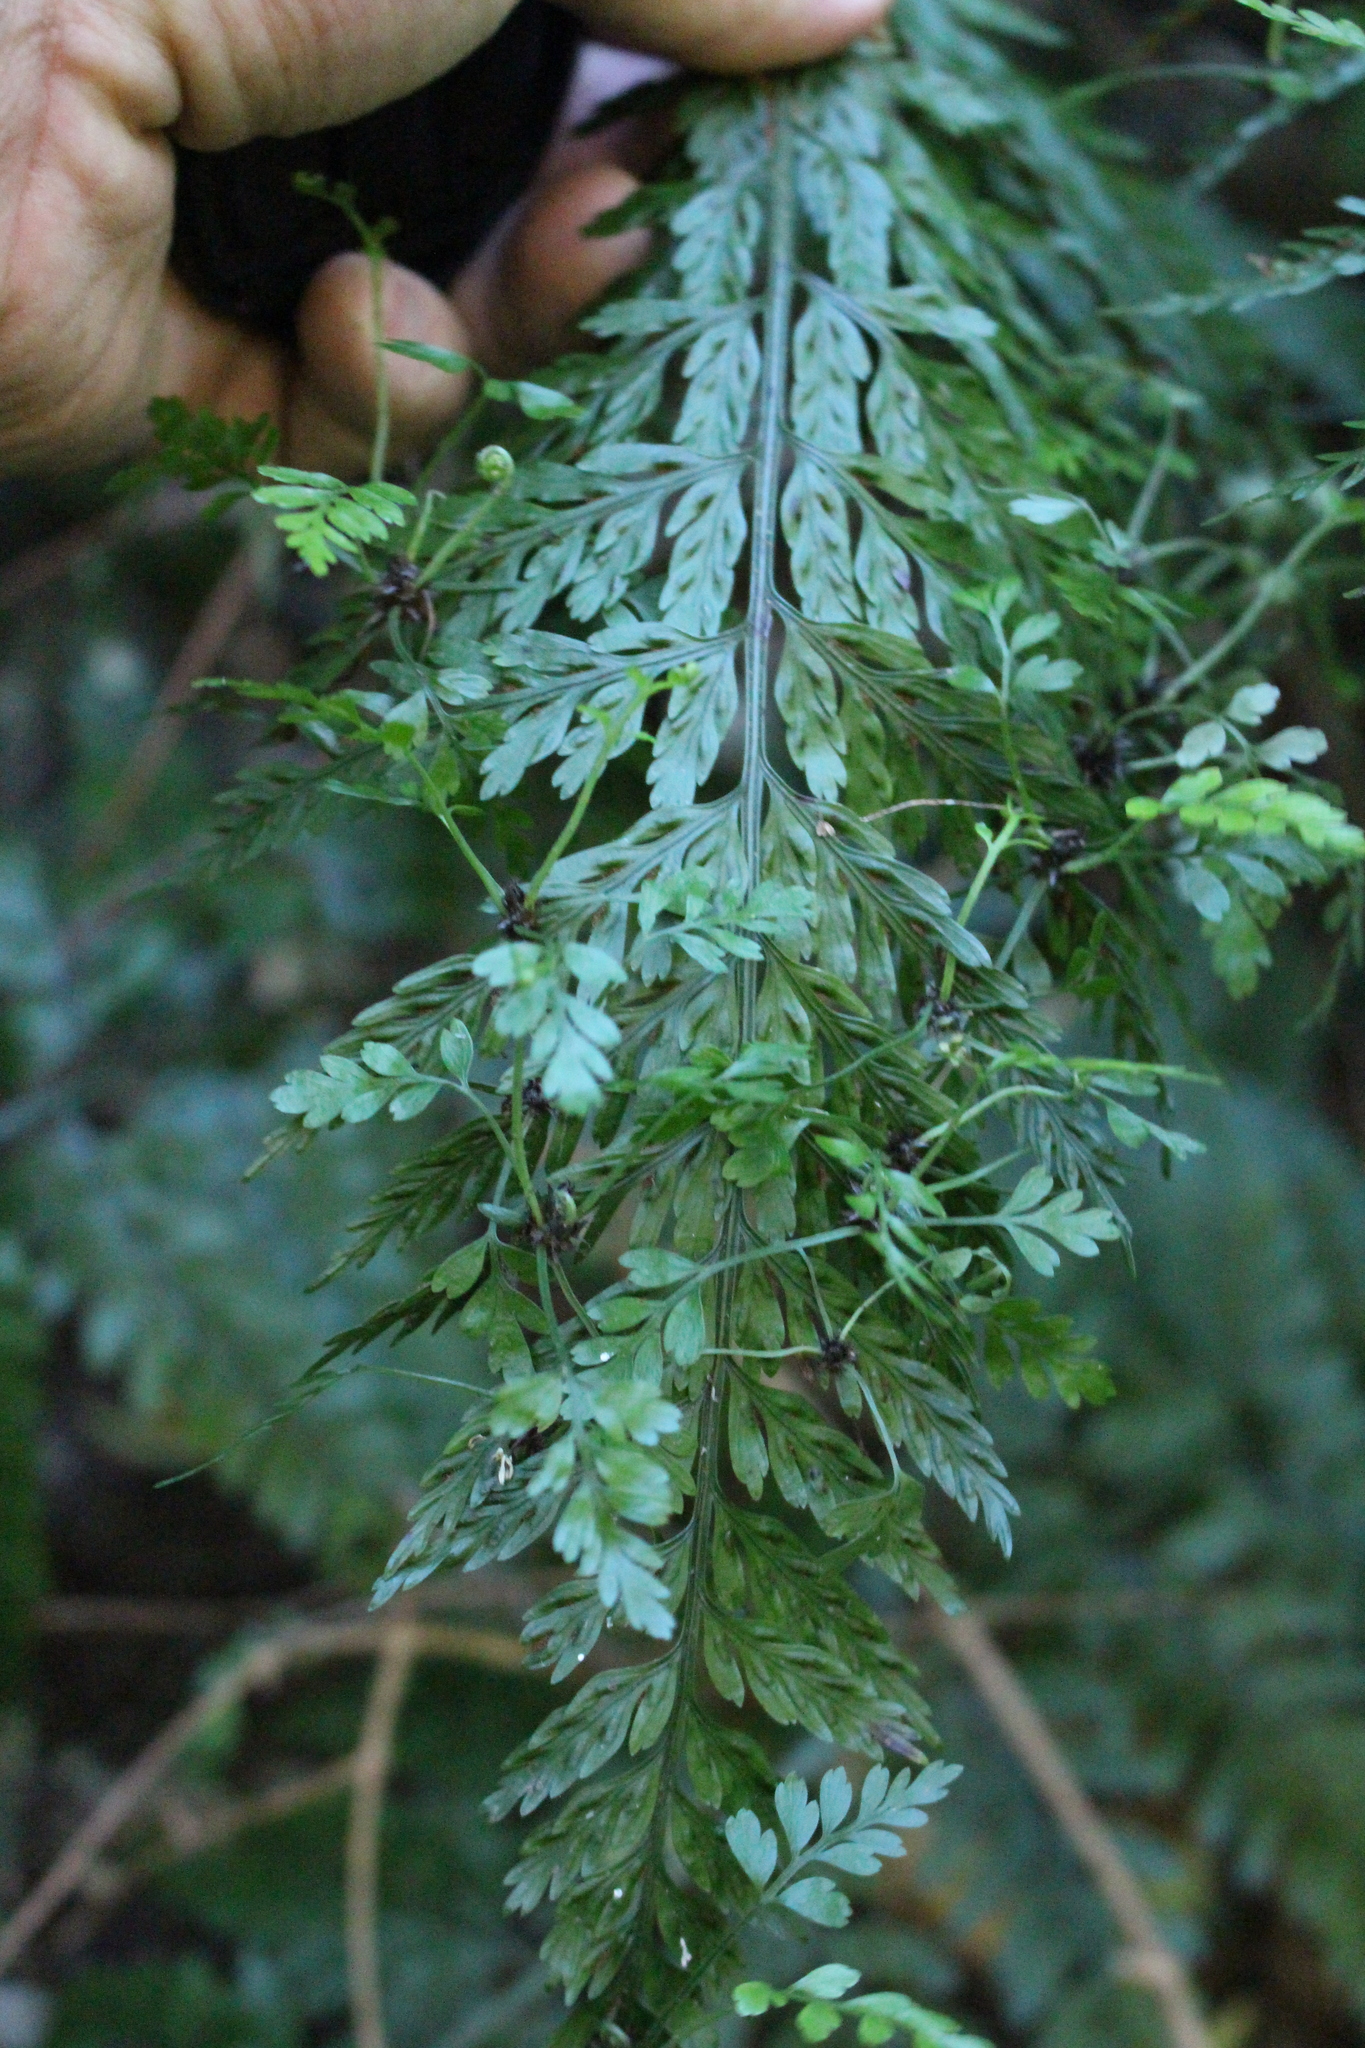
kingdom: Plantae
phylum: Tracheophyta
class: Polypodiopsida
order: Polypodiales
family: Aspleniaceae
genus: Asplenium
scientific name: Asplenium
